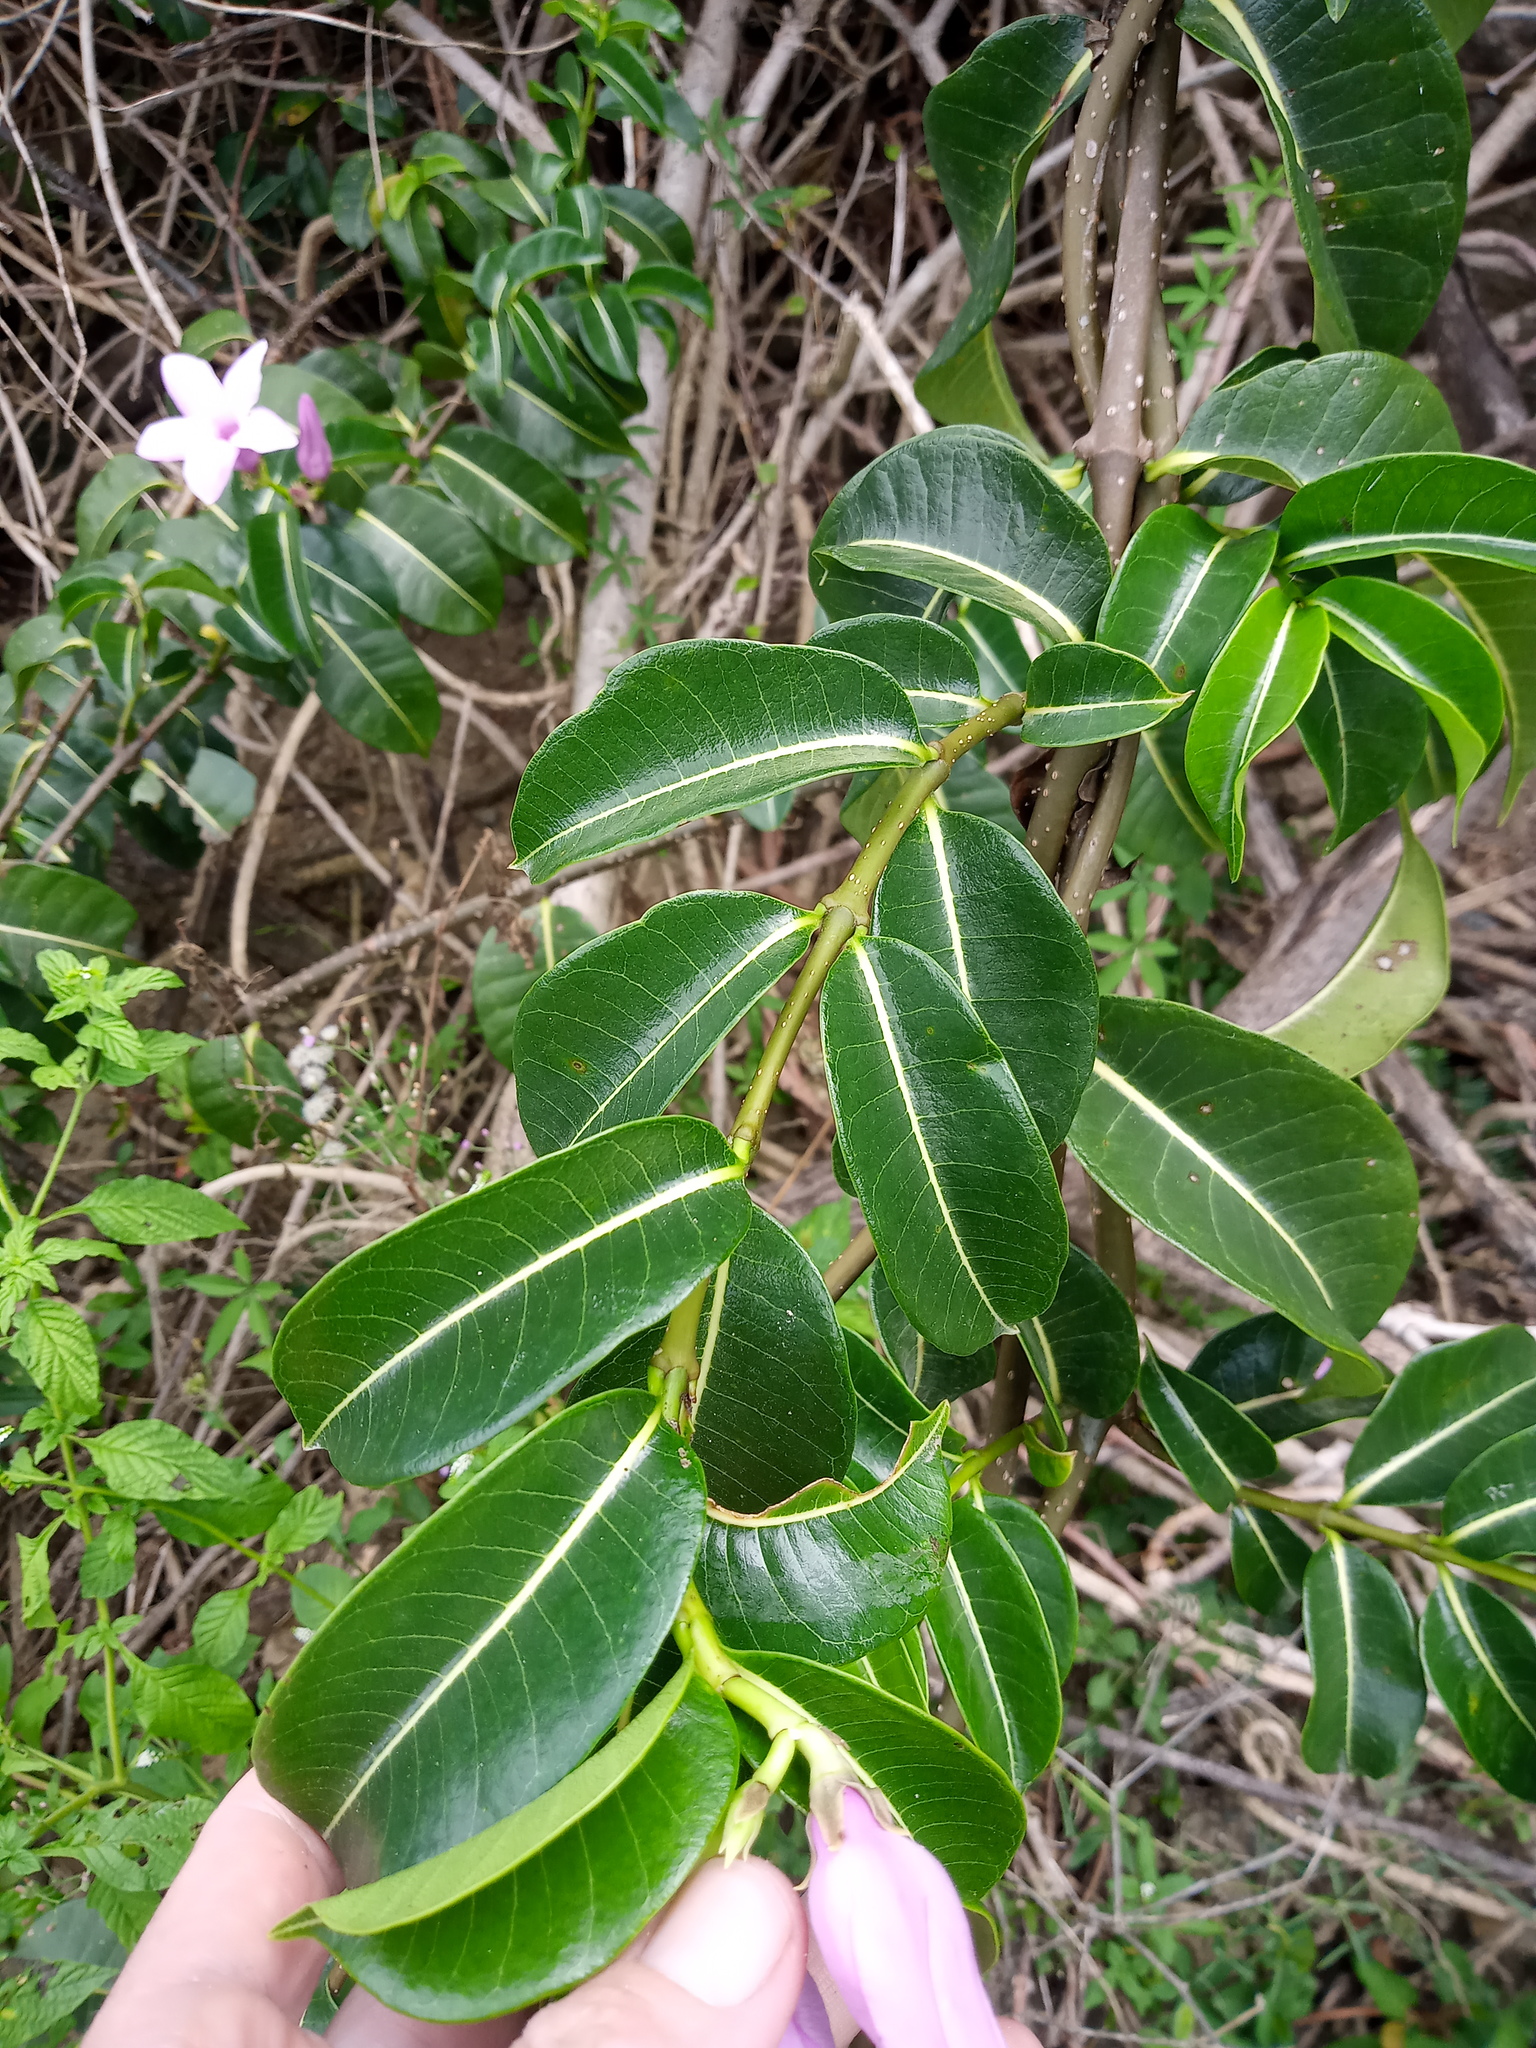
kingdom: Plantae
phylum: Tracheophyta
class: Magnoliopsida
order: Gentianales
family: Apocynaceae
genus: Cryptostegia
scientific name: Cryptostegia madagascariensis
